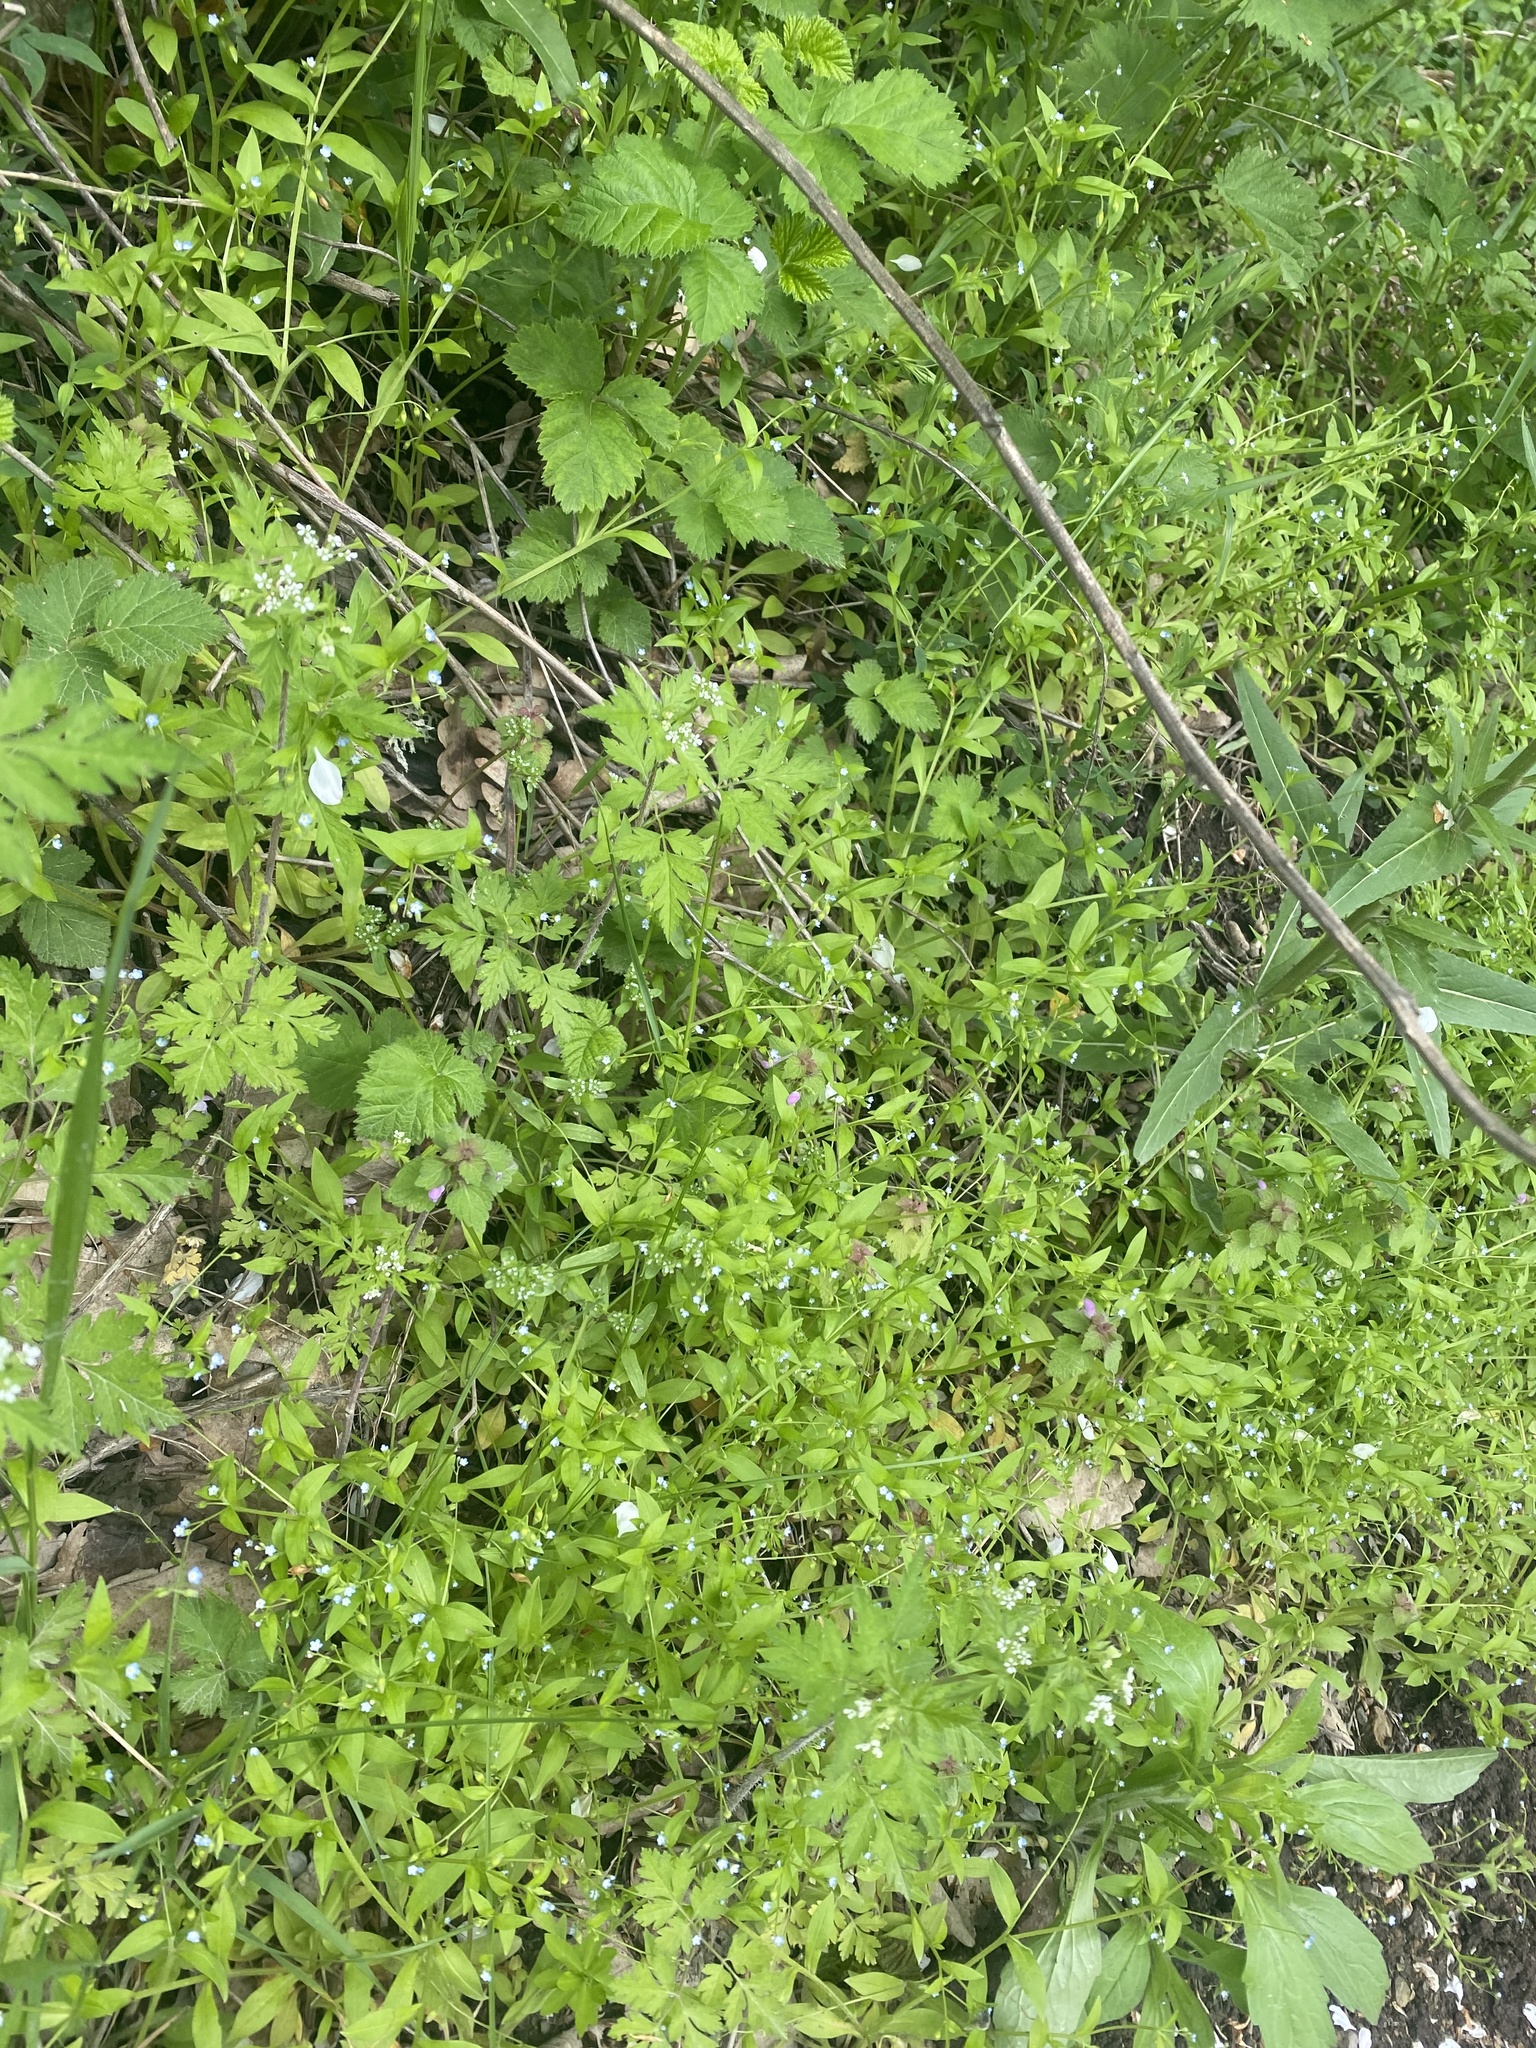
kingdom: Plantae
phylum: Tracheophyta
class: Magnoliopsida
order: Boraginales
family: Boraginaceae
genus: Myosotis
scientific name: Myosotis sparsiflora
